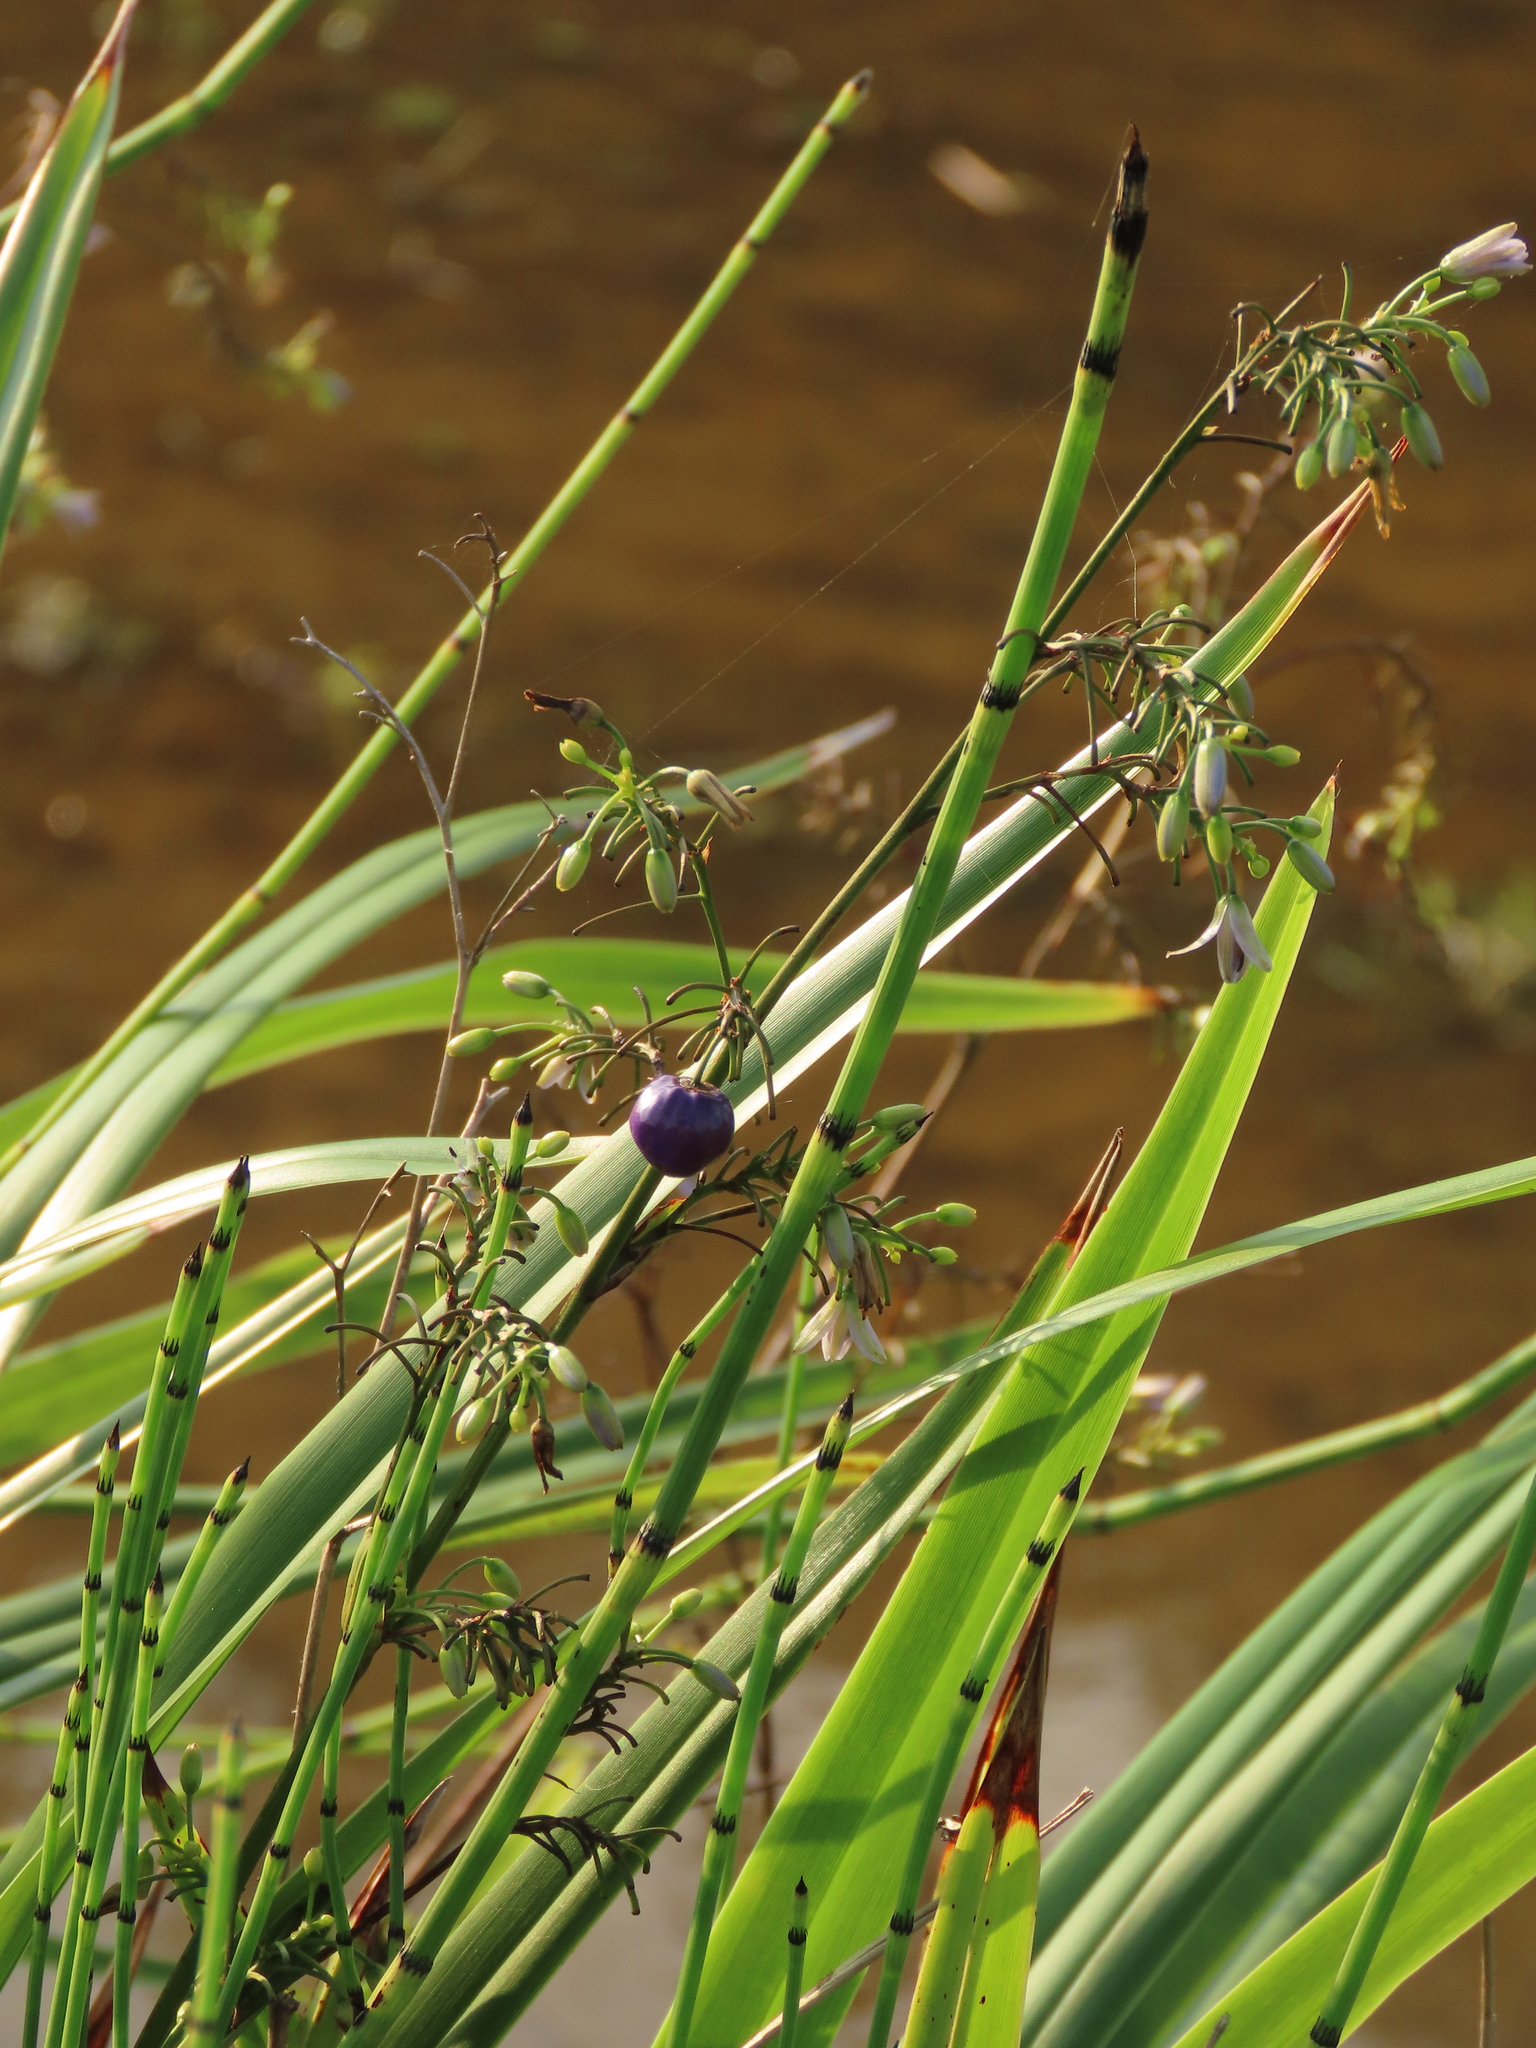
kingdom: Plantae
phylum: Tracheophyta
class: Liliopsida
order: Asparagales
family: Asphodelaceae
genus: Dianella
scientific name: Dianella ensifolia
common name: New zealand lilyplant
